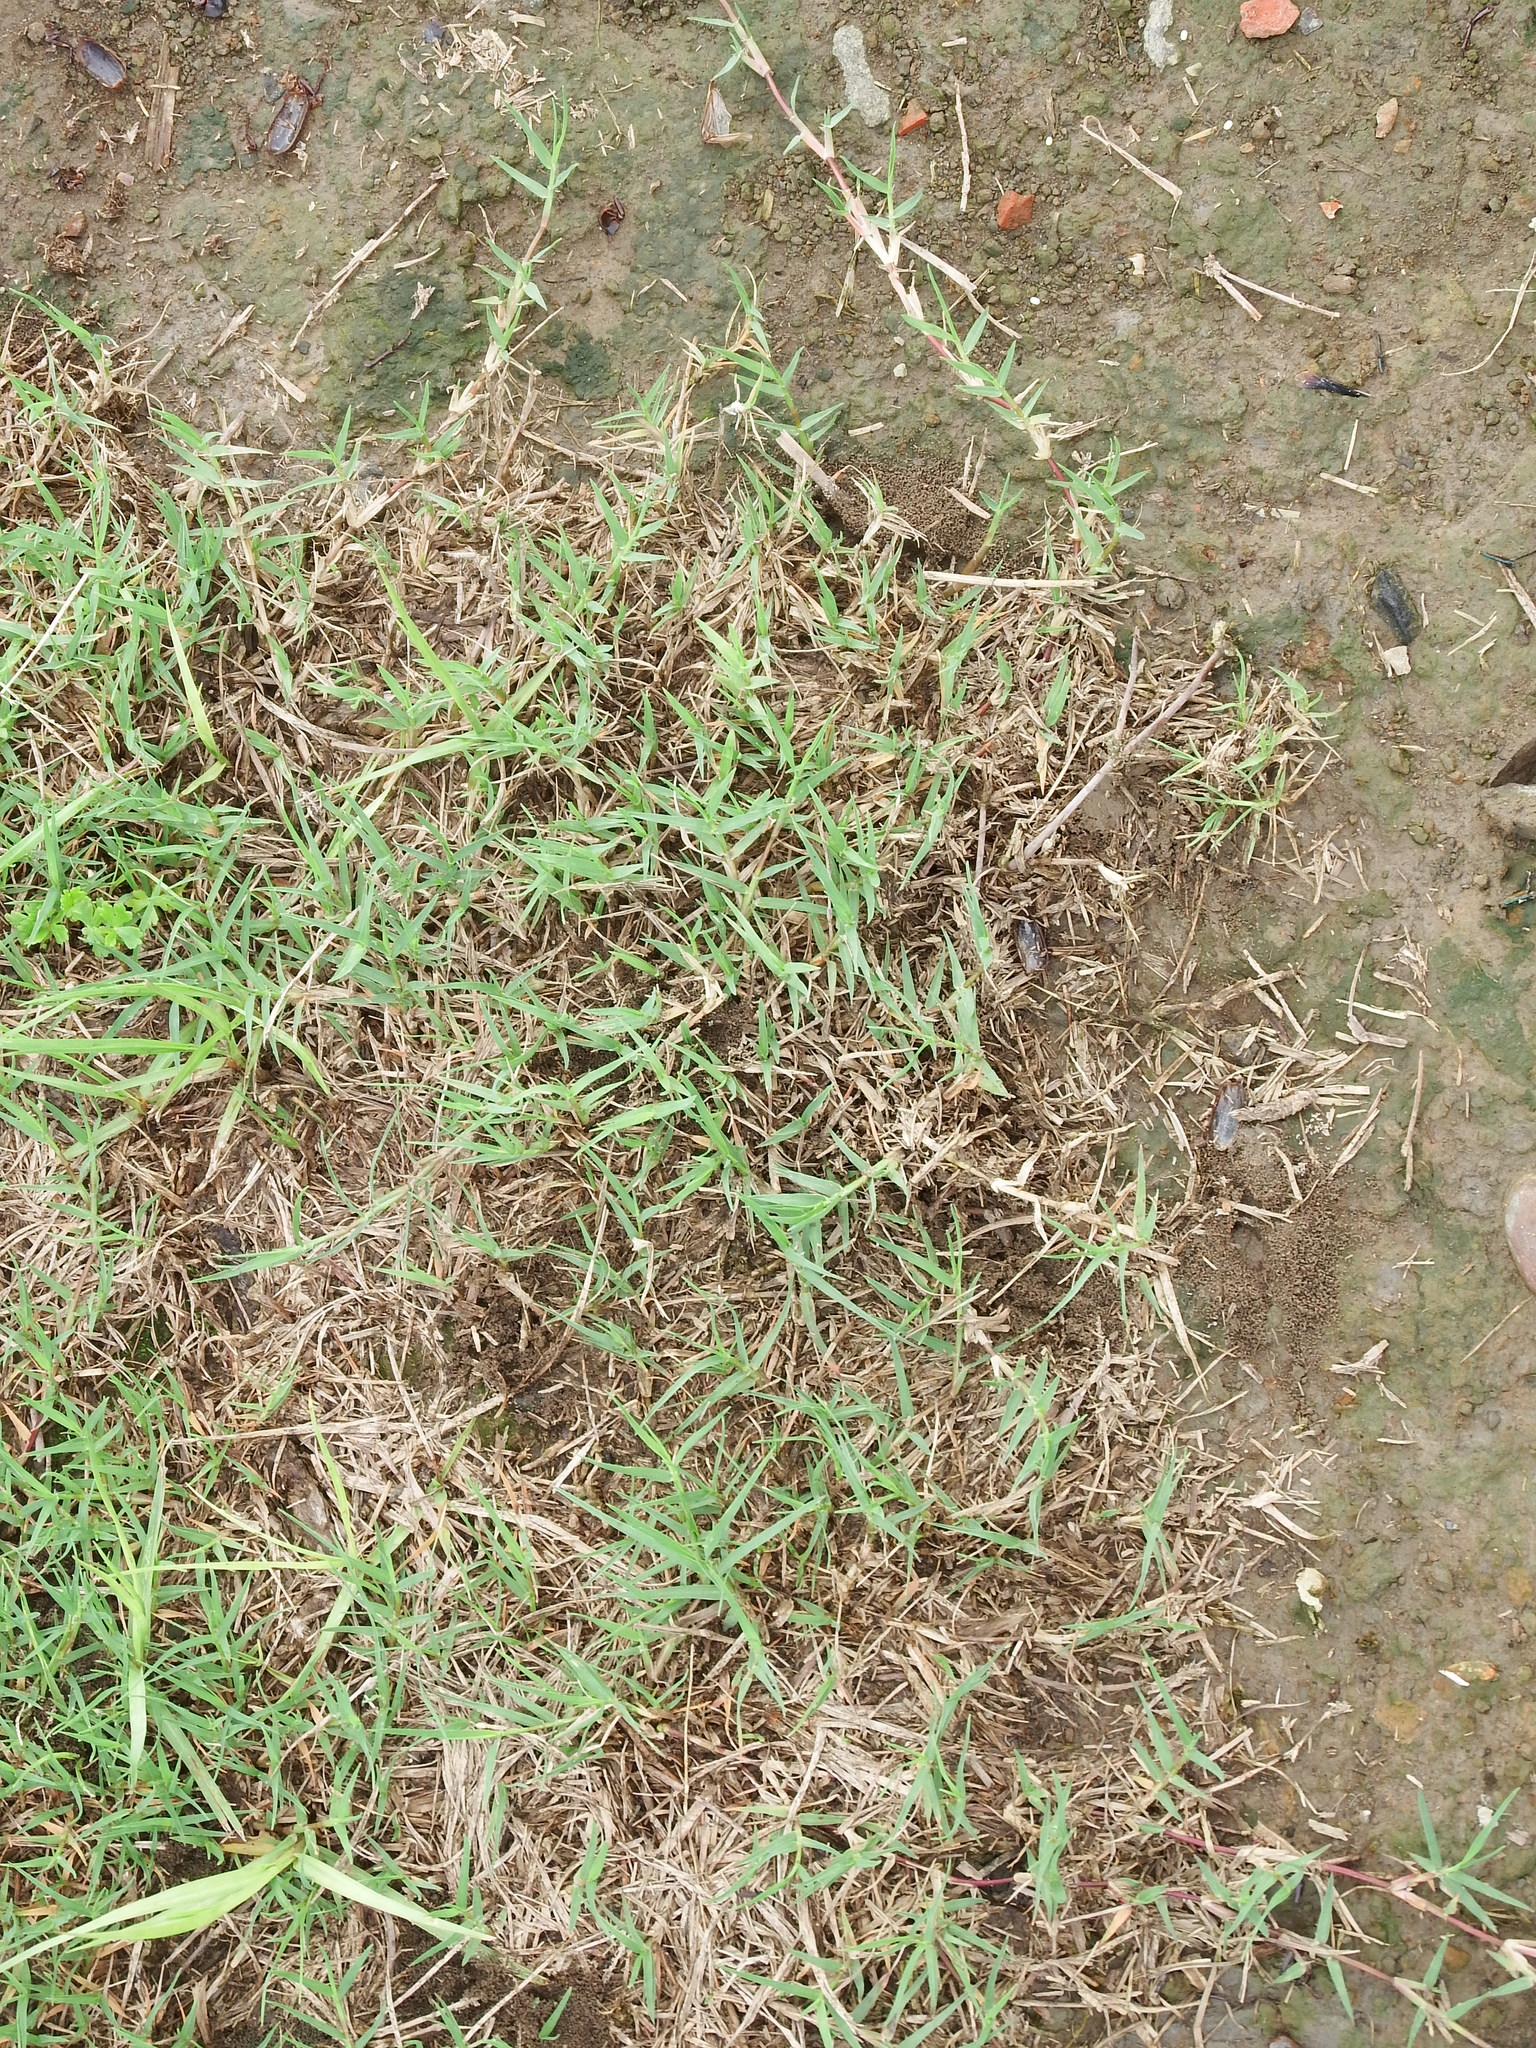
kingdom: Plantae
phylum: Tracheophyta
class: Liliopsida
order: Poales
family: Poaceae
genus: Cynodon
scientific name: Cynodon dactylon
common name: Bermuda grass
